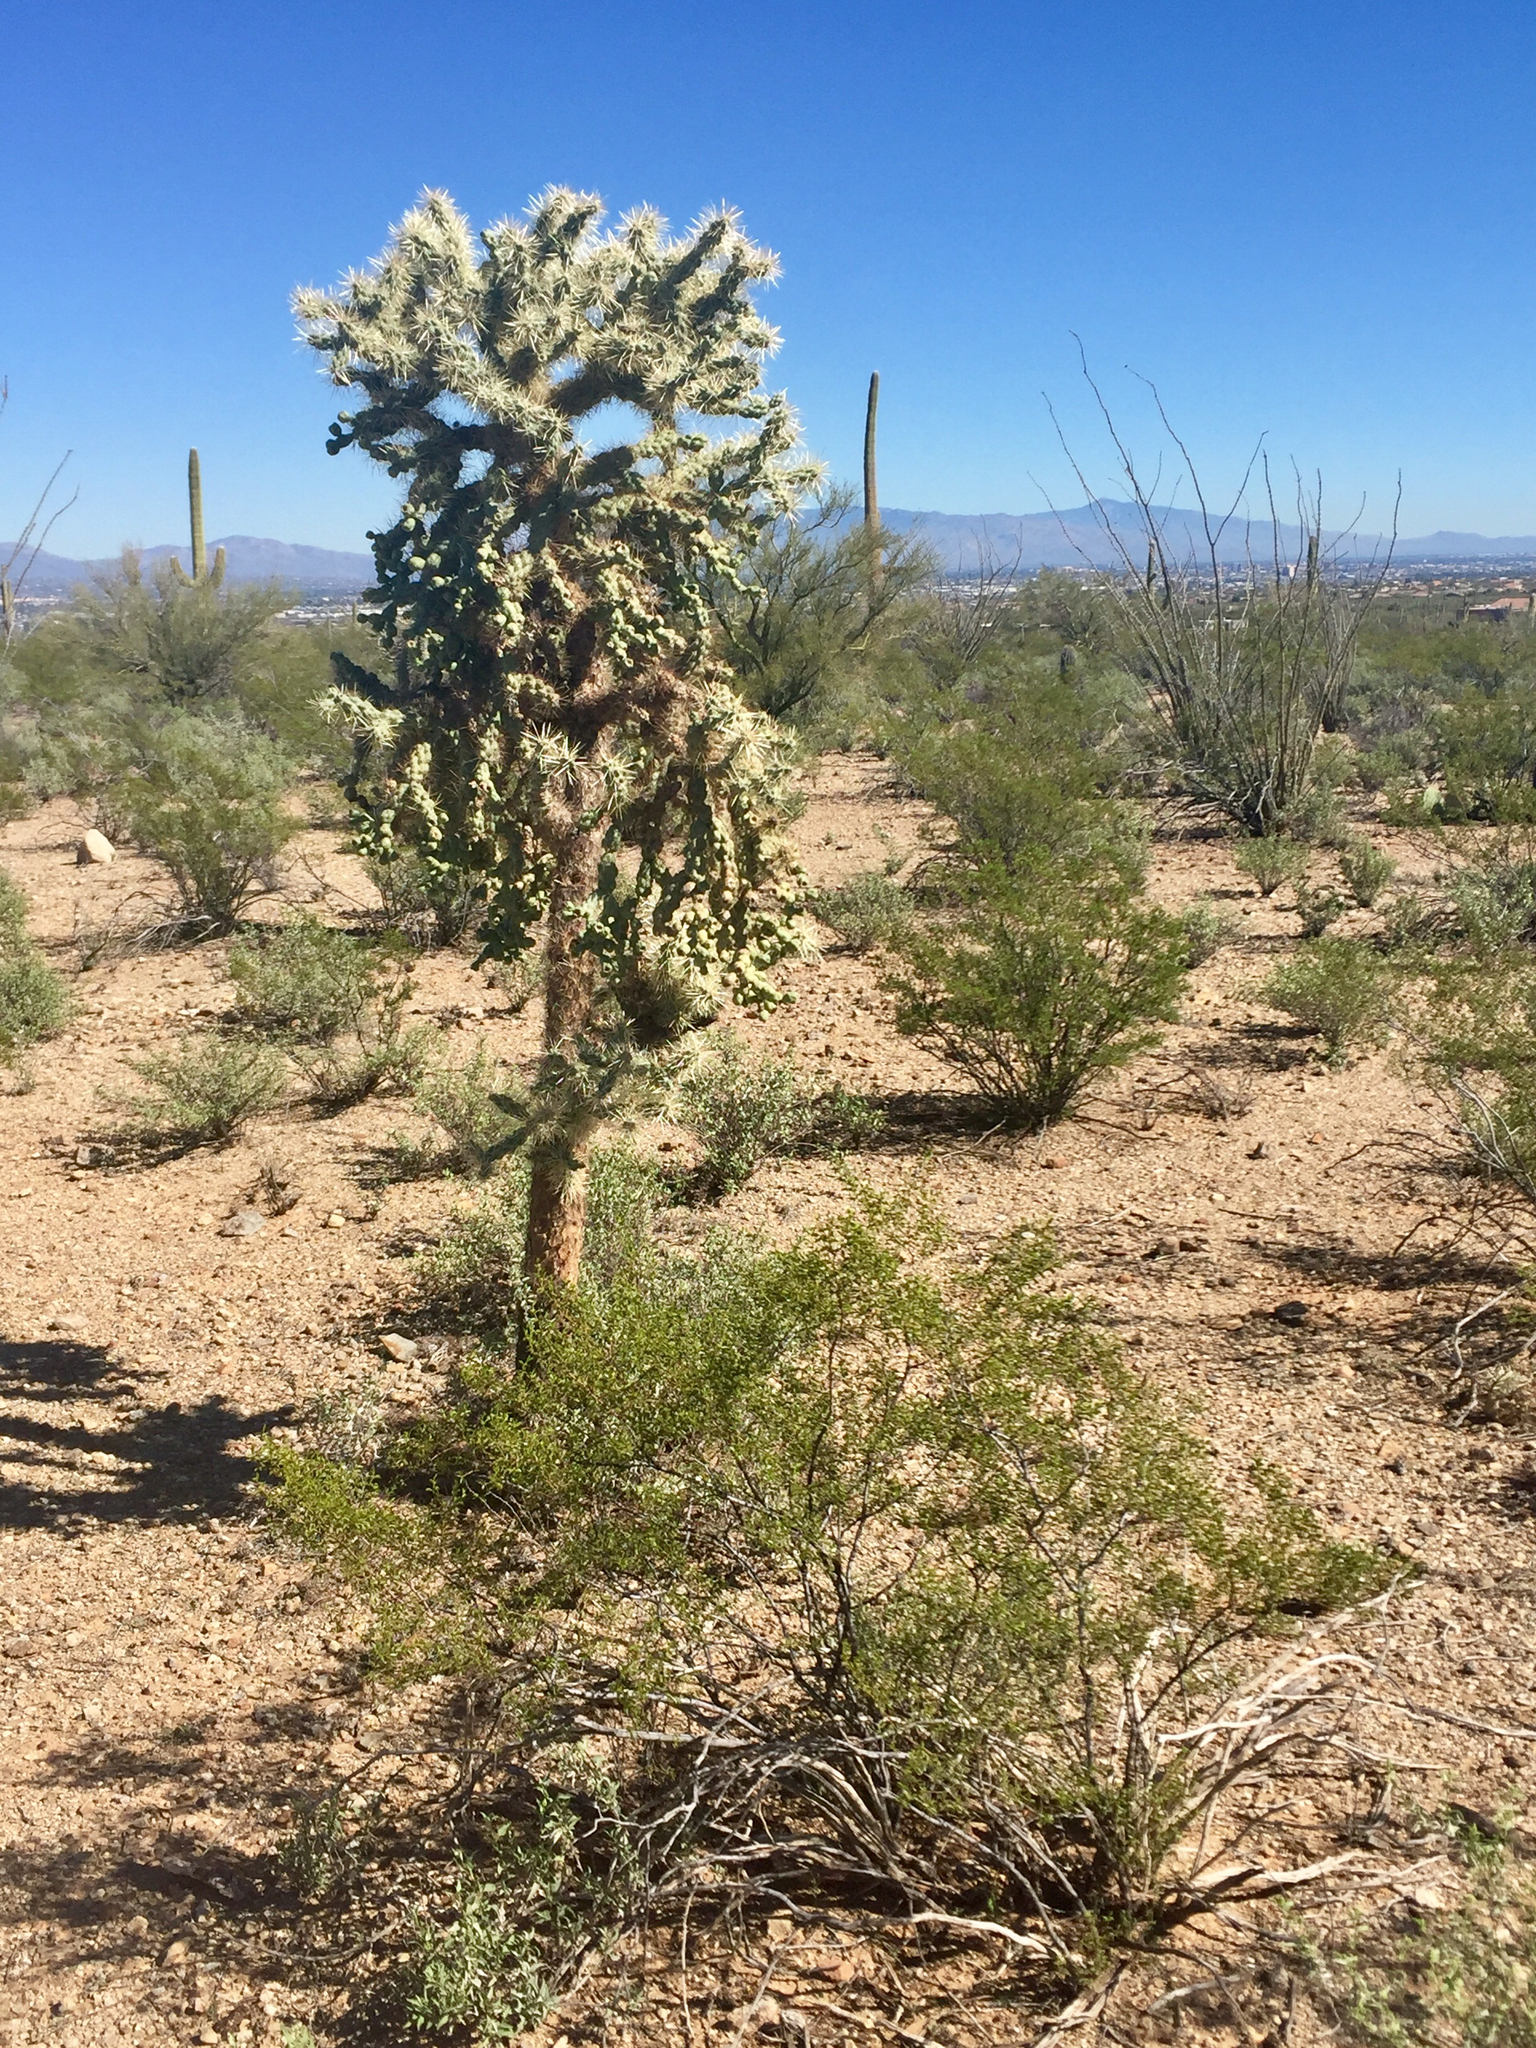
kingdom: Plantae
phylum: Tracheophyta
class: Magnoliopsida
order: Caryophyllales
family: Cactaceae
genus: Cylindropuntia
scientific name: Cylindropuntia fulgida
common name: Jumping cholla
